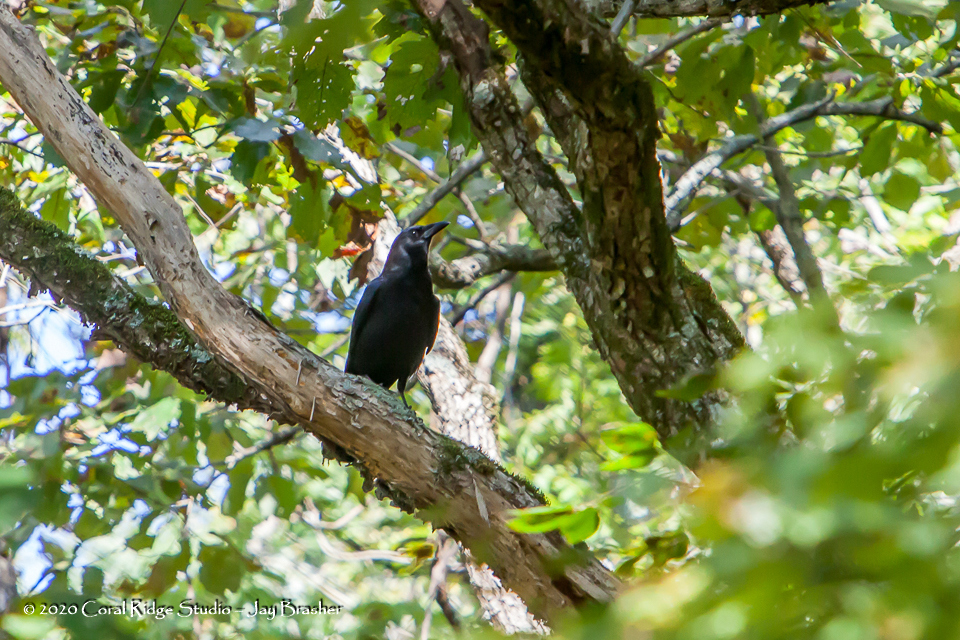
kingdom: Animalia
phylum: Chordata
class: Aves
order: Passeriformes
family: Corvidae
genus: Corvus
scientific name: Corvus brachyrhynchos
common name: American crow
